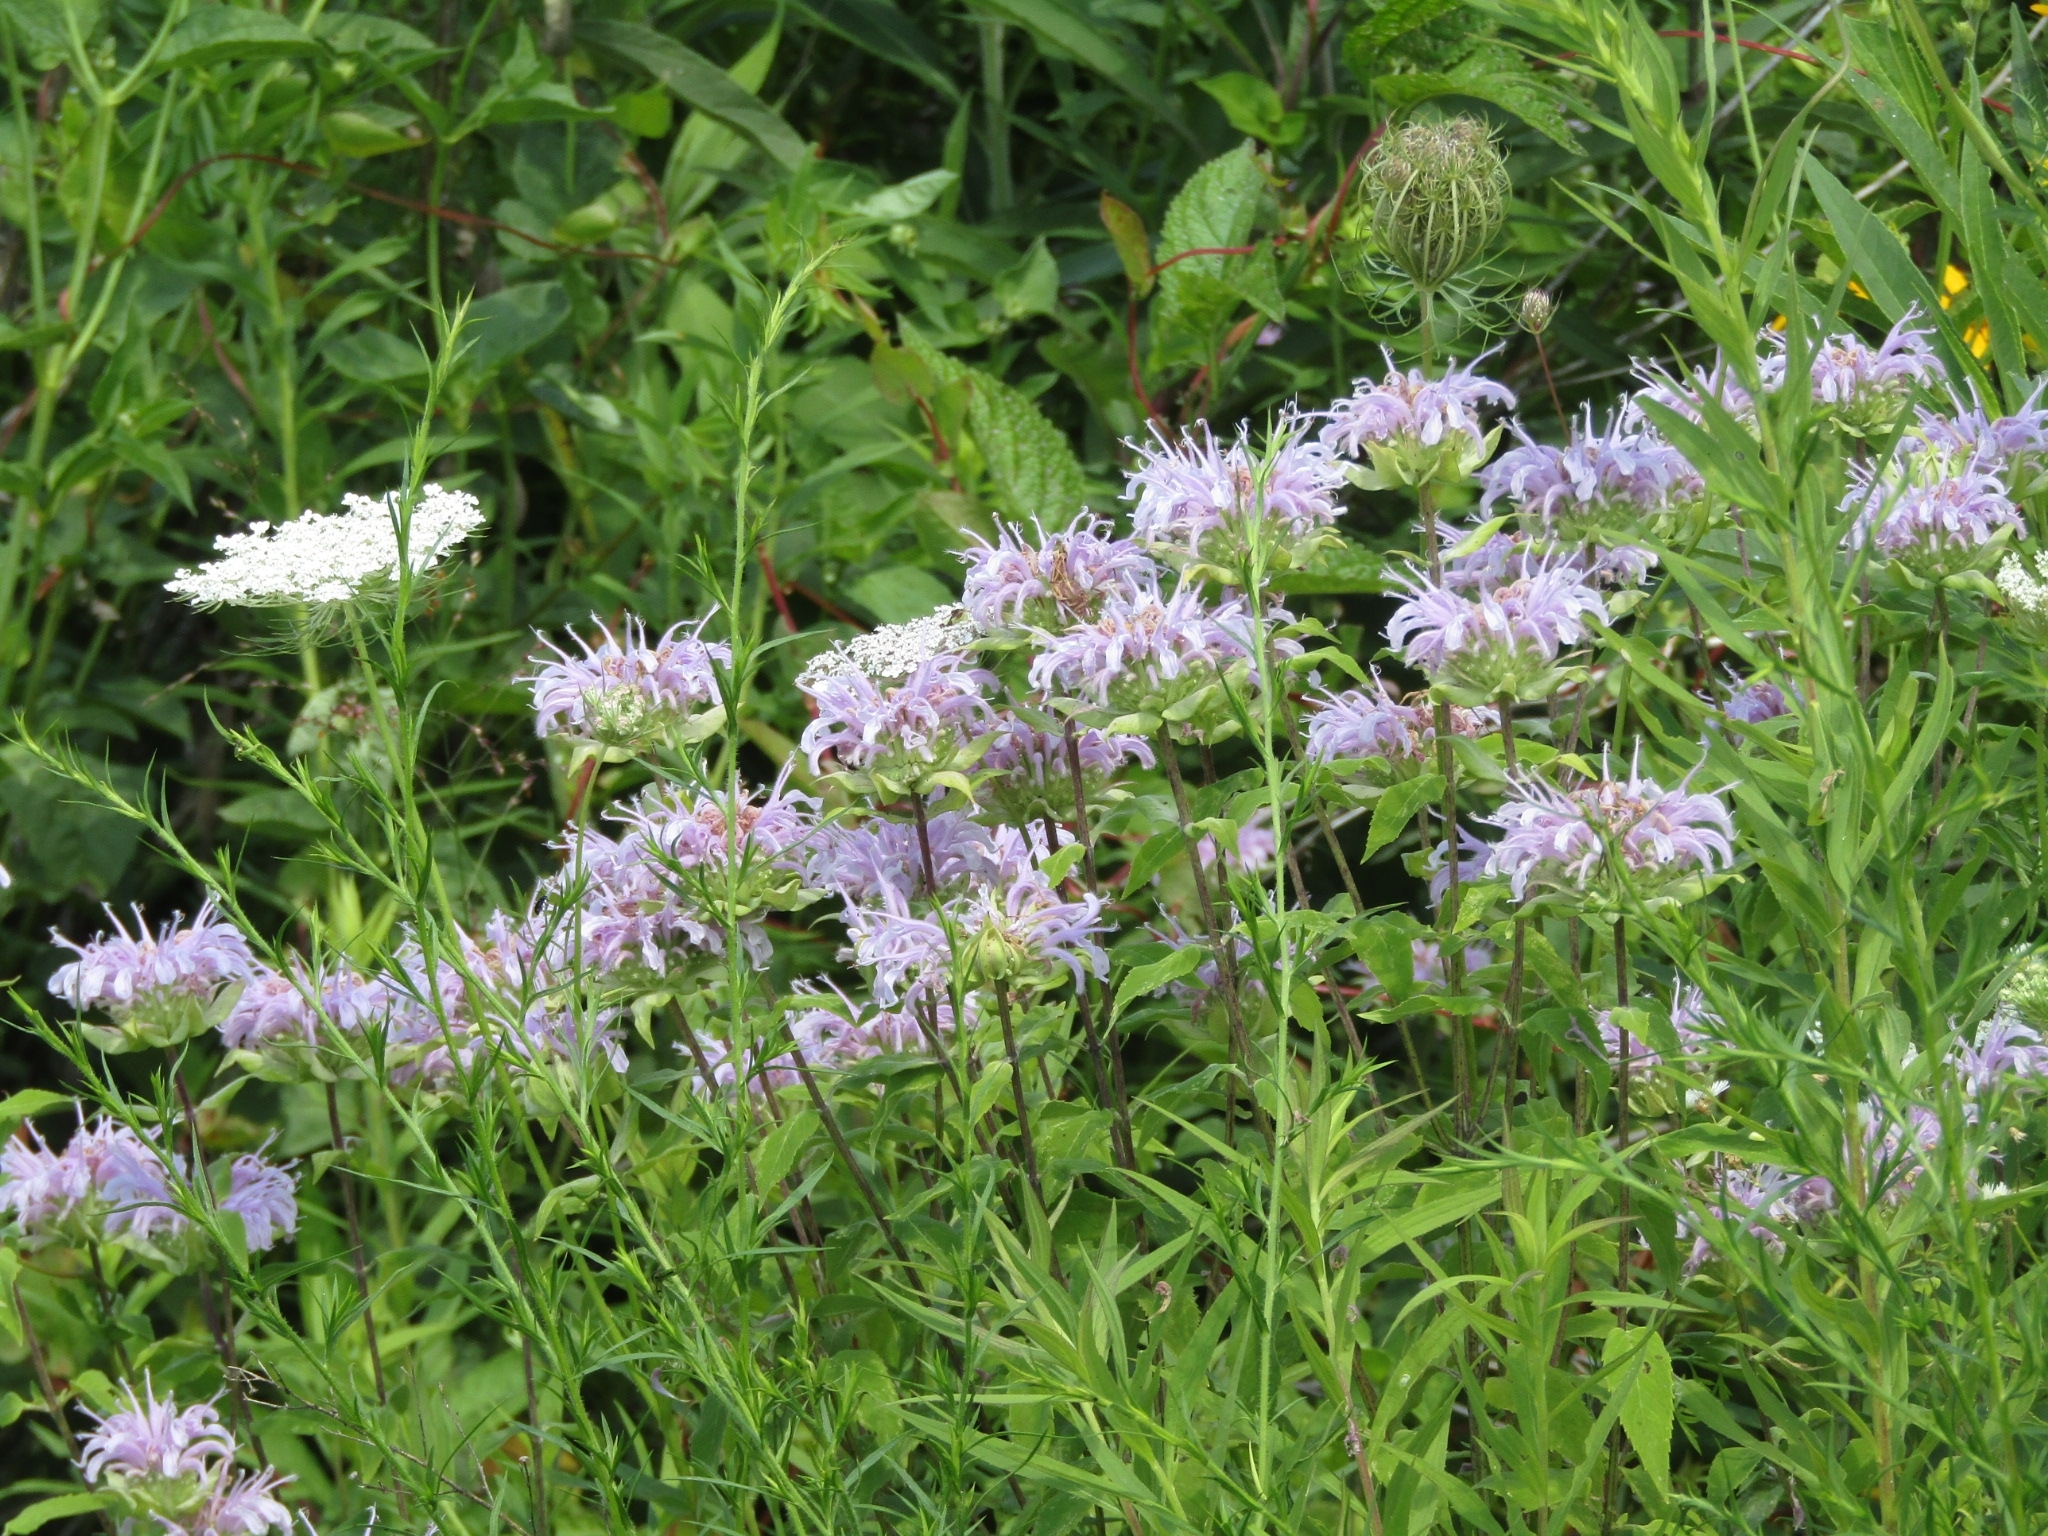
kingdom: Plantae
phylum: Tracheophyta
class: Magnoliopsida
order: Lamiales
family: Lamiaceae
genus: Monarda
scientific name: Monarda fistulosa
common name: Purple beebalm
